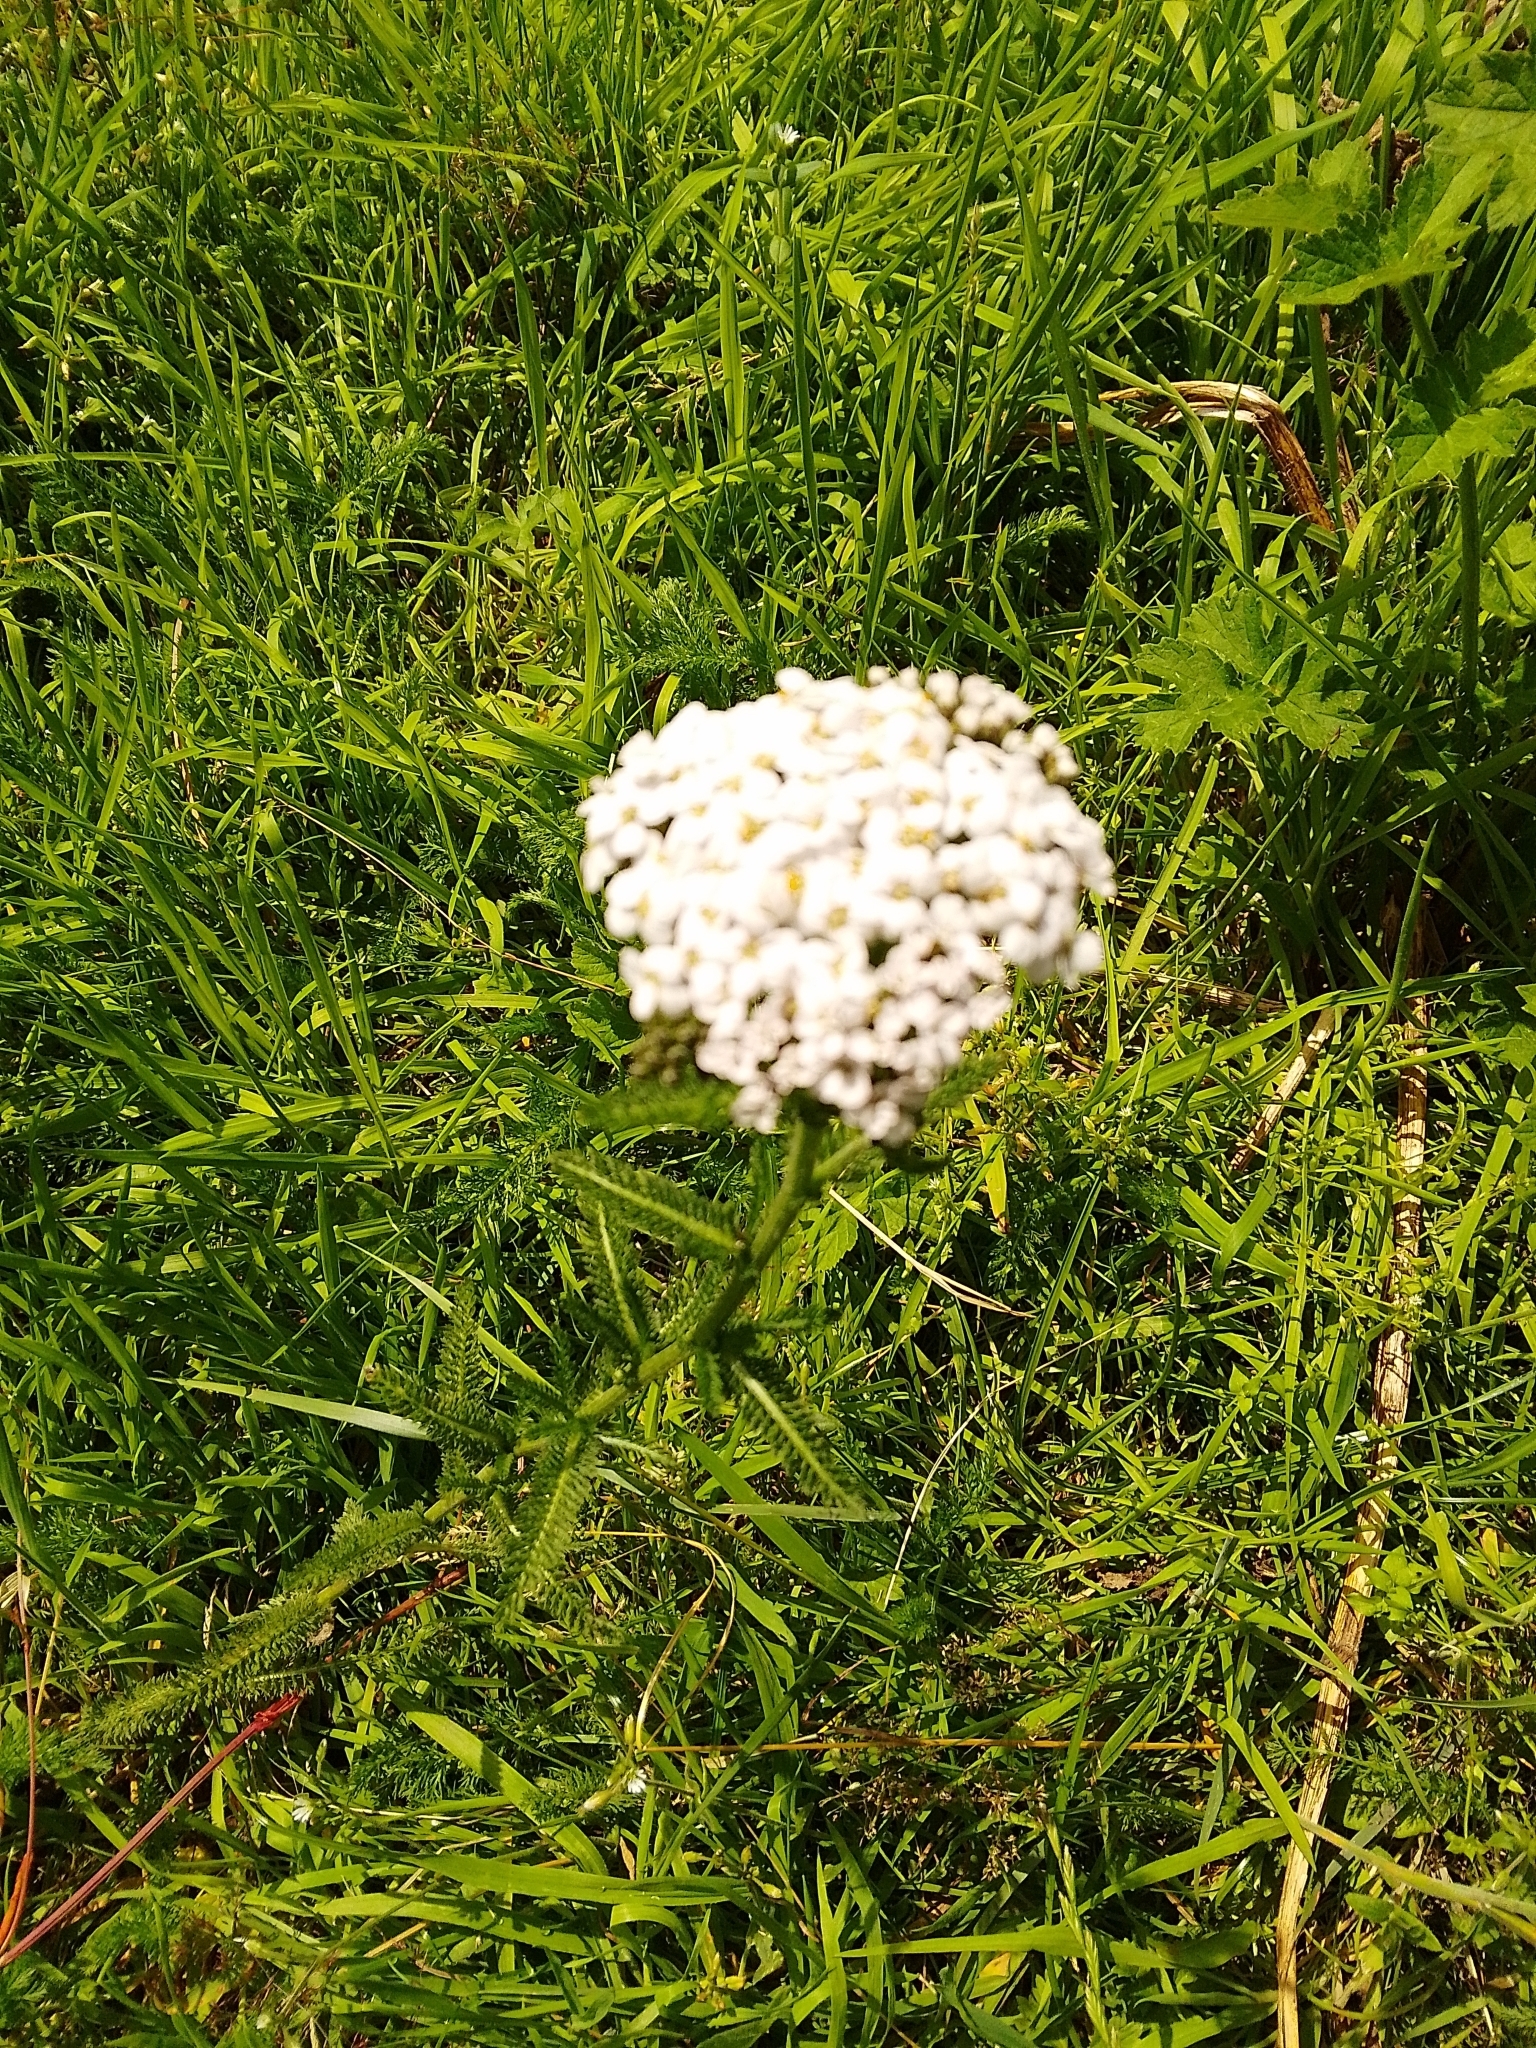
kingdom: Plantae
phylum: Tracheophyta
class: Magnoliopsida
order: Asterales
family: Asteraceae
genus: Achillea
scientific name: Achillea millefolium
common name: Yarrow
